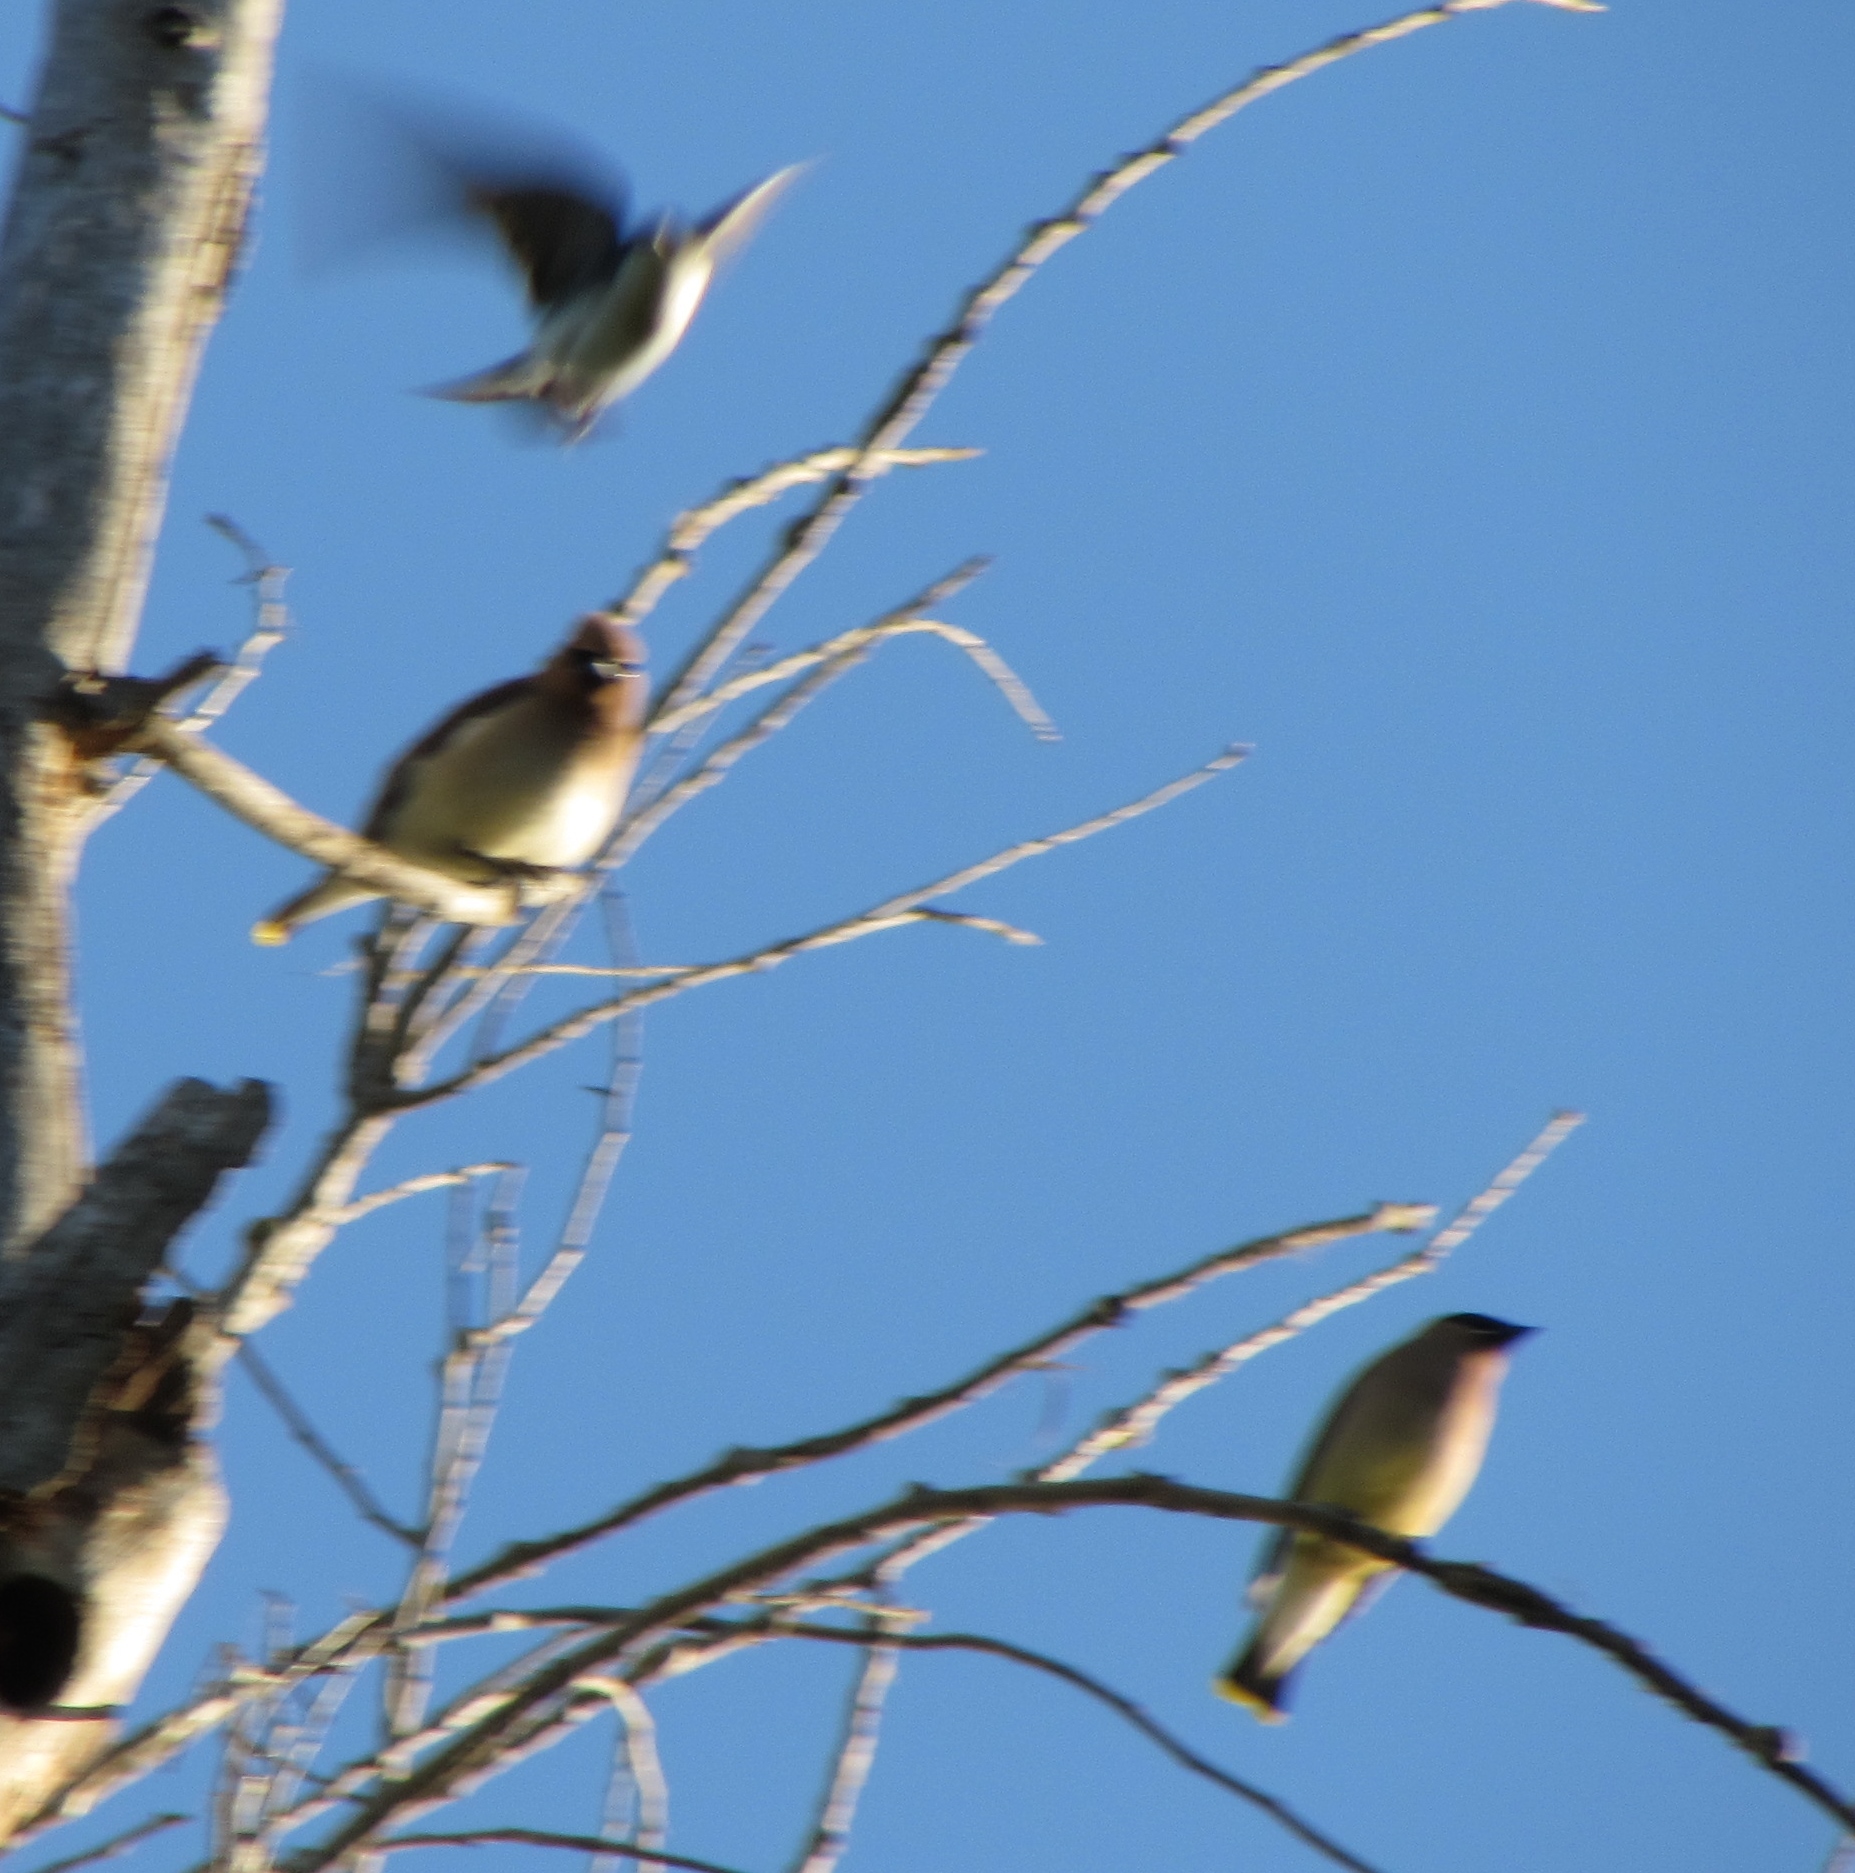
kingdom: Animalia
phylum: Chordata
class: Aves
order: Passeriformes
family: Bombycillidae
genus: Bombycilla
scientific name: Bombycilla cedrorum
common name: Cedar waxwing
